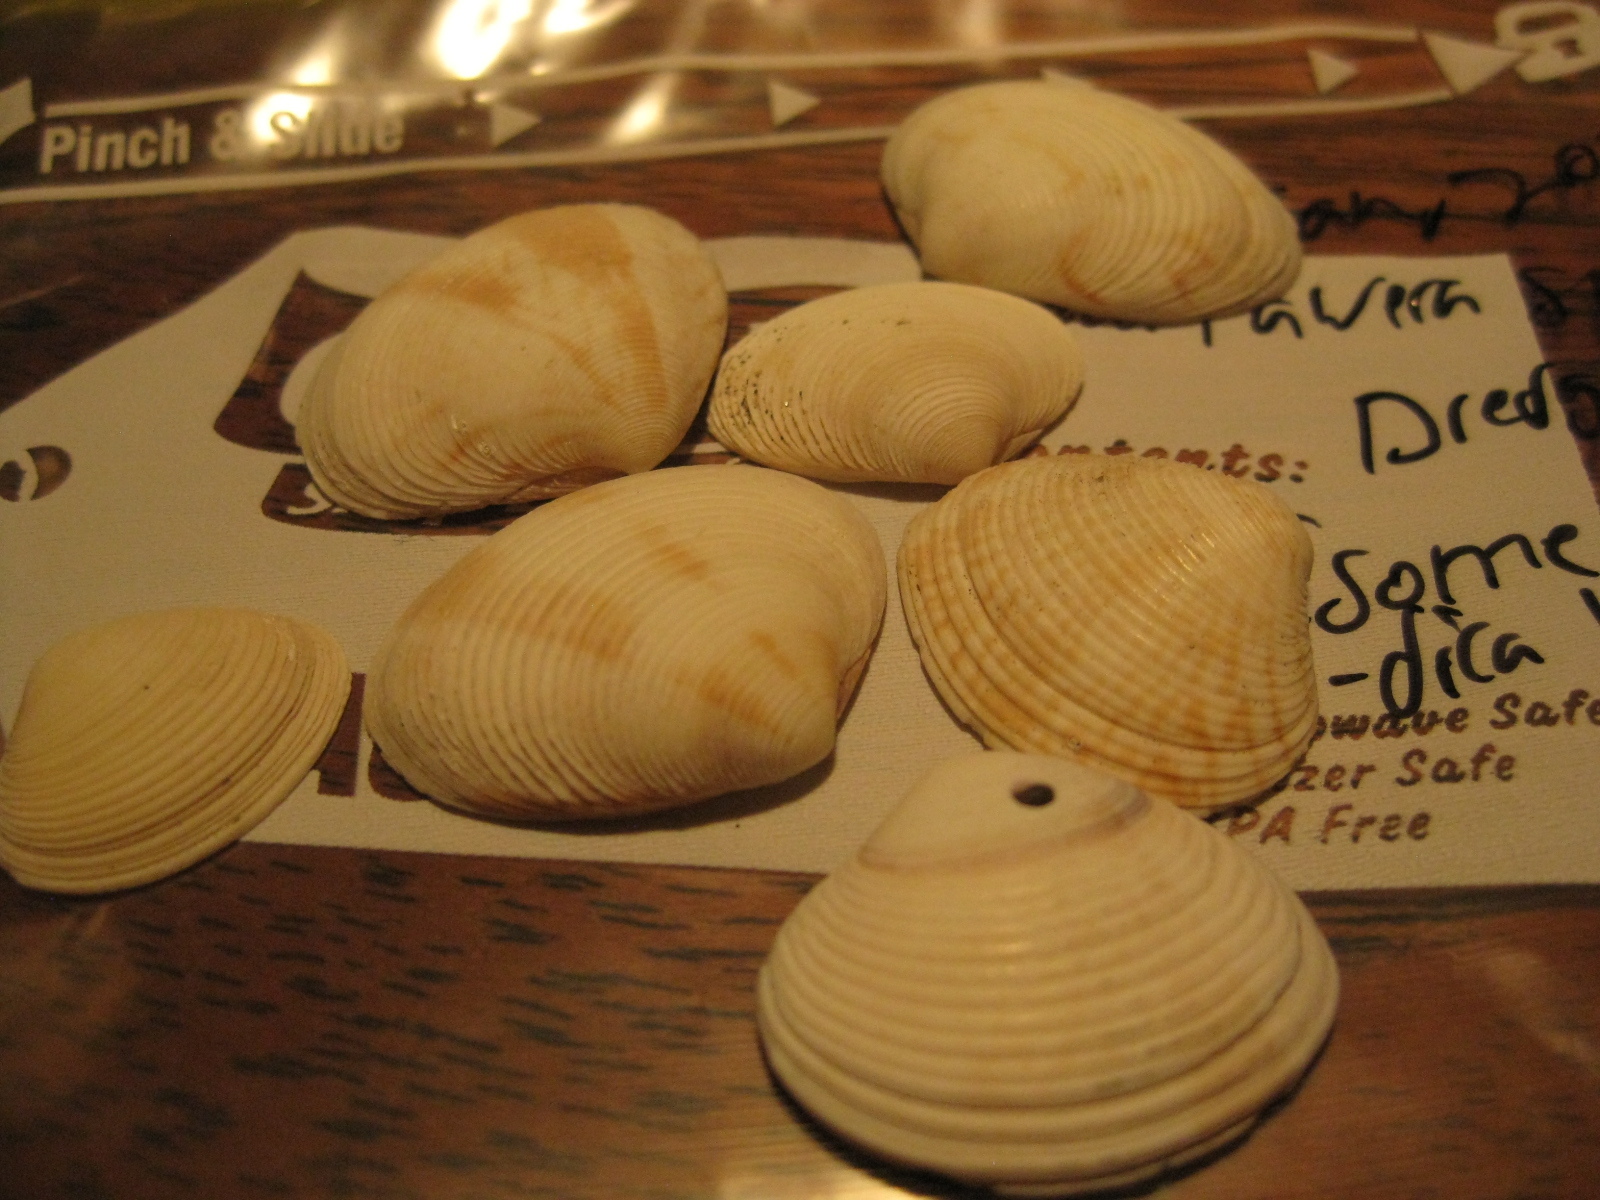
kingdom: Animalia
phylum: Mollusca
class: Bivalvia
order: Venerida
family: Veneridae
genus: Tawera
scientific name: Tawera spissa
